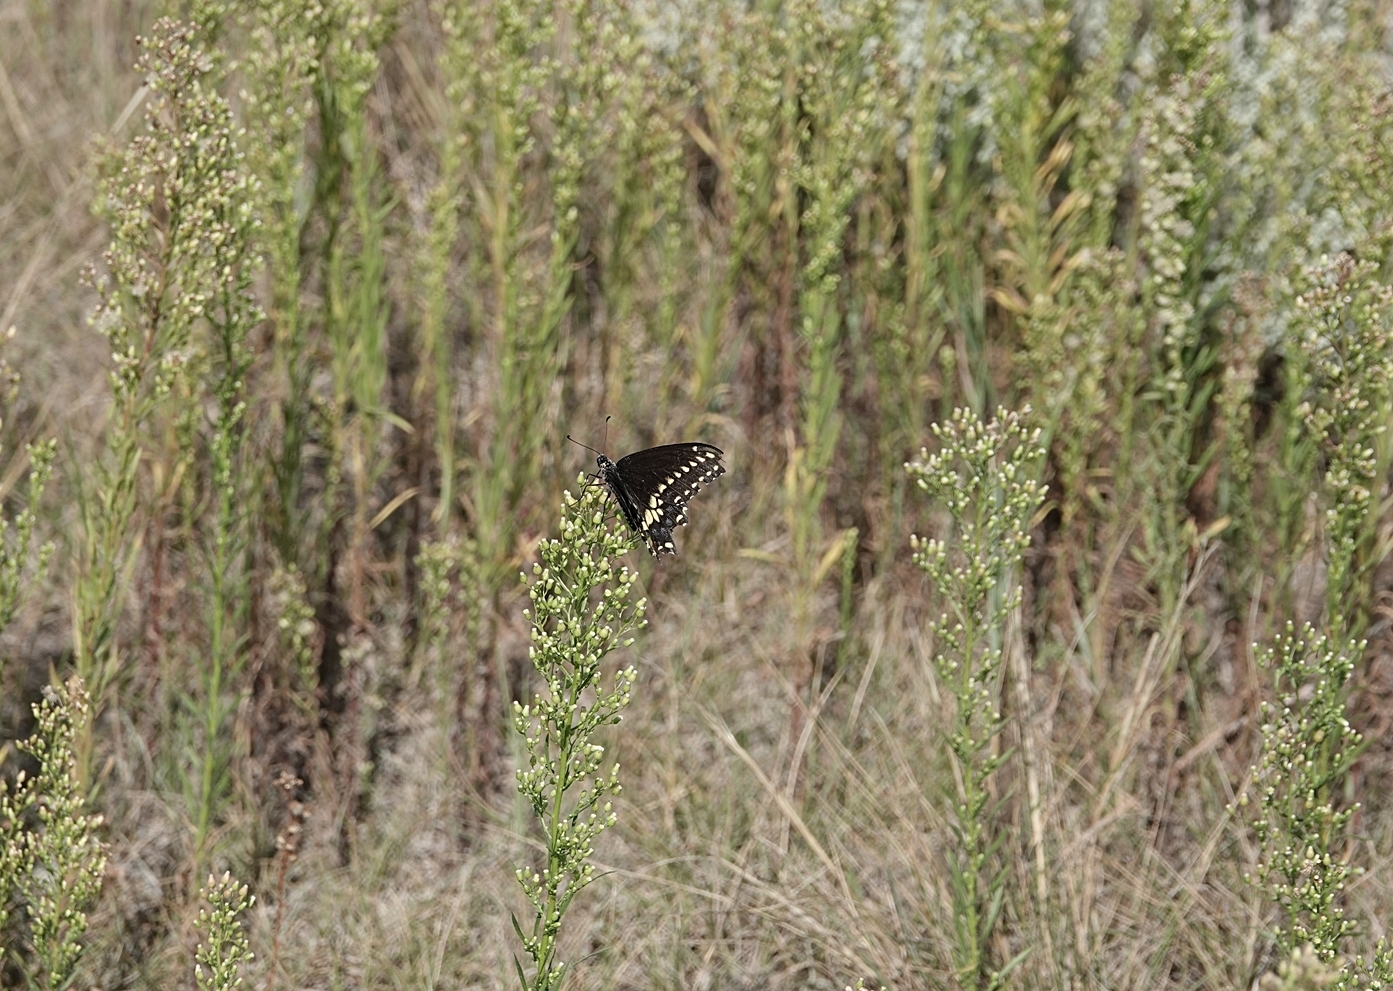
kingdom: Animalia
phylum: Arthropoda
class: Insecta
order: Lepidoptera
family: Papilionidae
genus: Papilio
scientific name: Papilio polyxenes
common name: Black swallowtail
